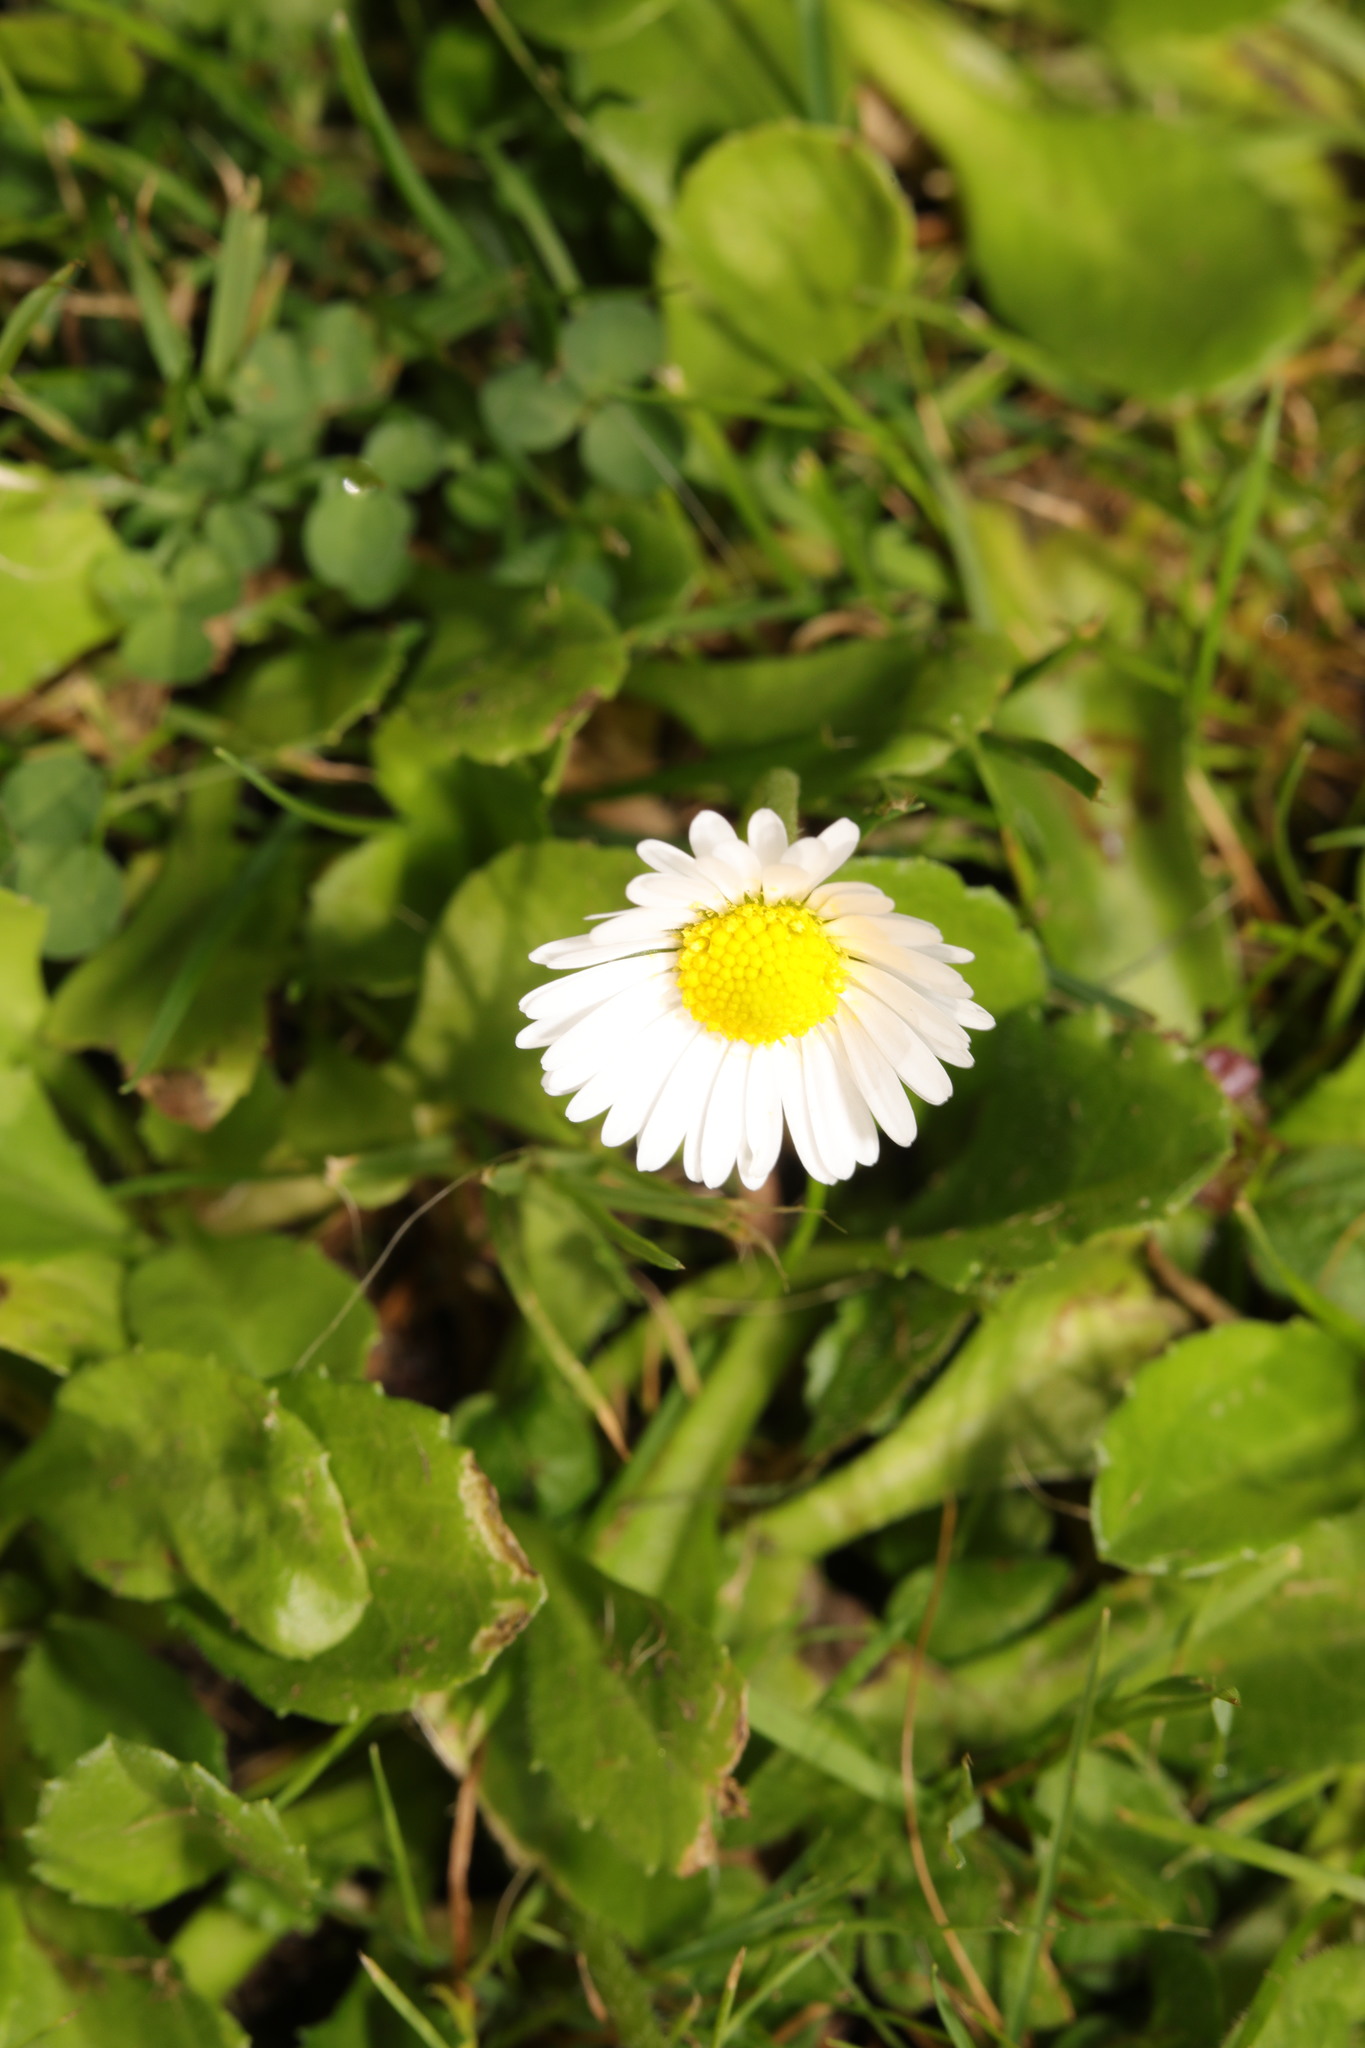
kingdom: Plantae
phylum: Tracheophyta
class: Magnoliopsida
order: Asterales
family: Asteraceae
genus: Bellis
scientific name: Bellis perennis
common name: Lawndaisy
